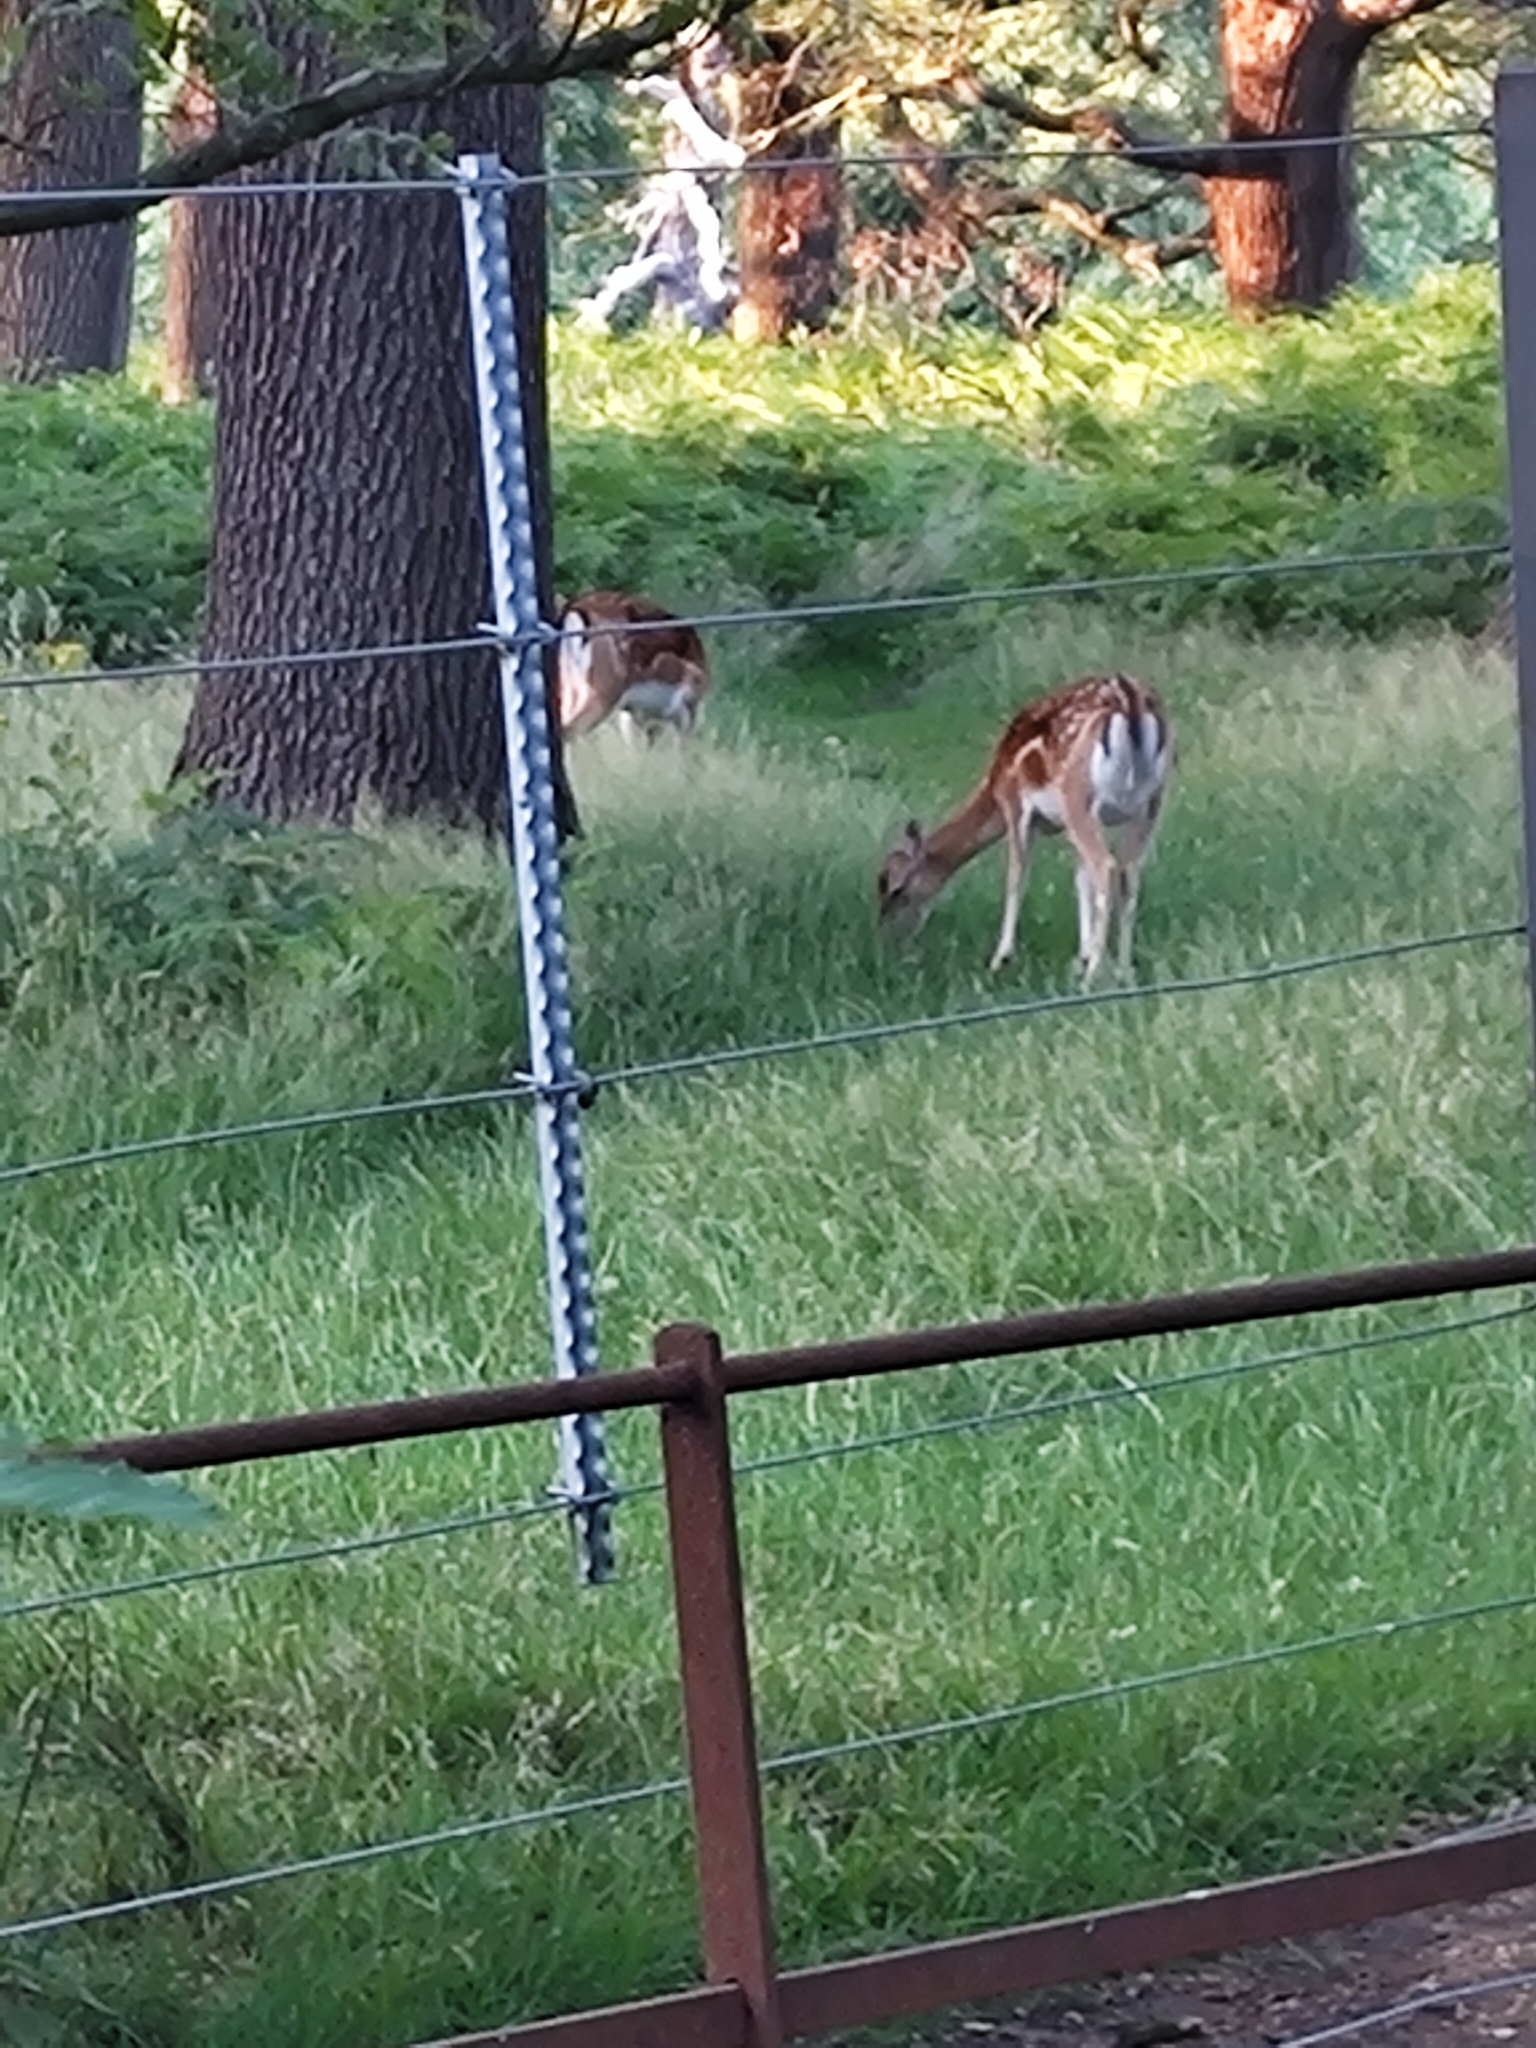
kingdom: Animalia
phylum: Chordata
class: Mammalia
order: Artiodactyla
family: Cervidae
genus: Dama
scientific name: Dama dama
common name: Fallow deer
